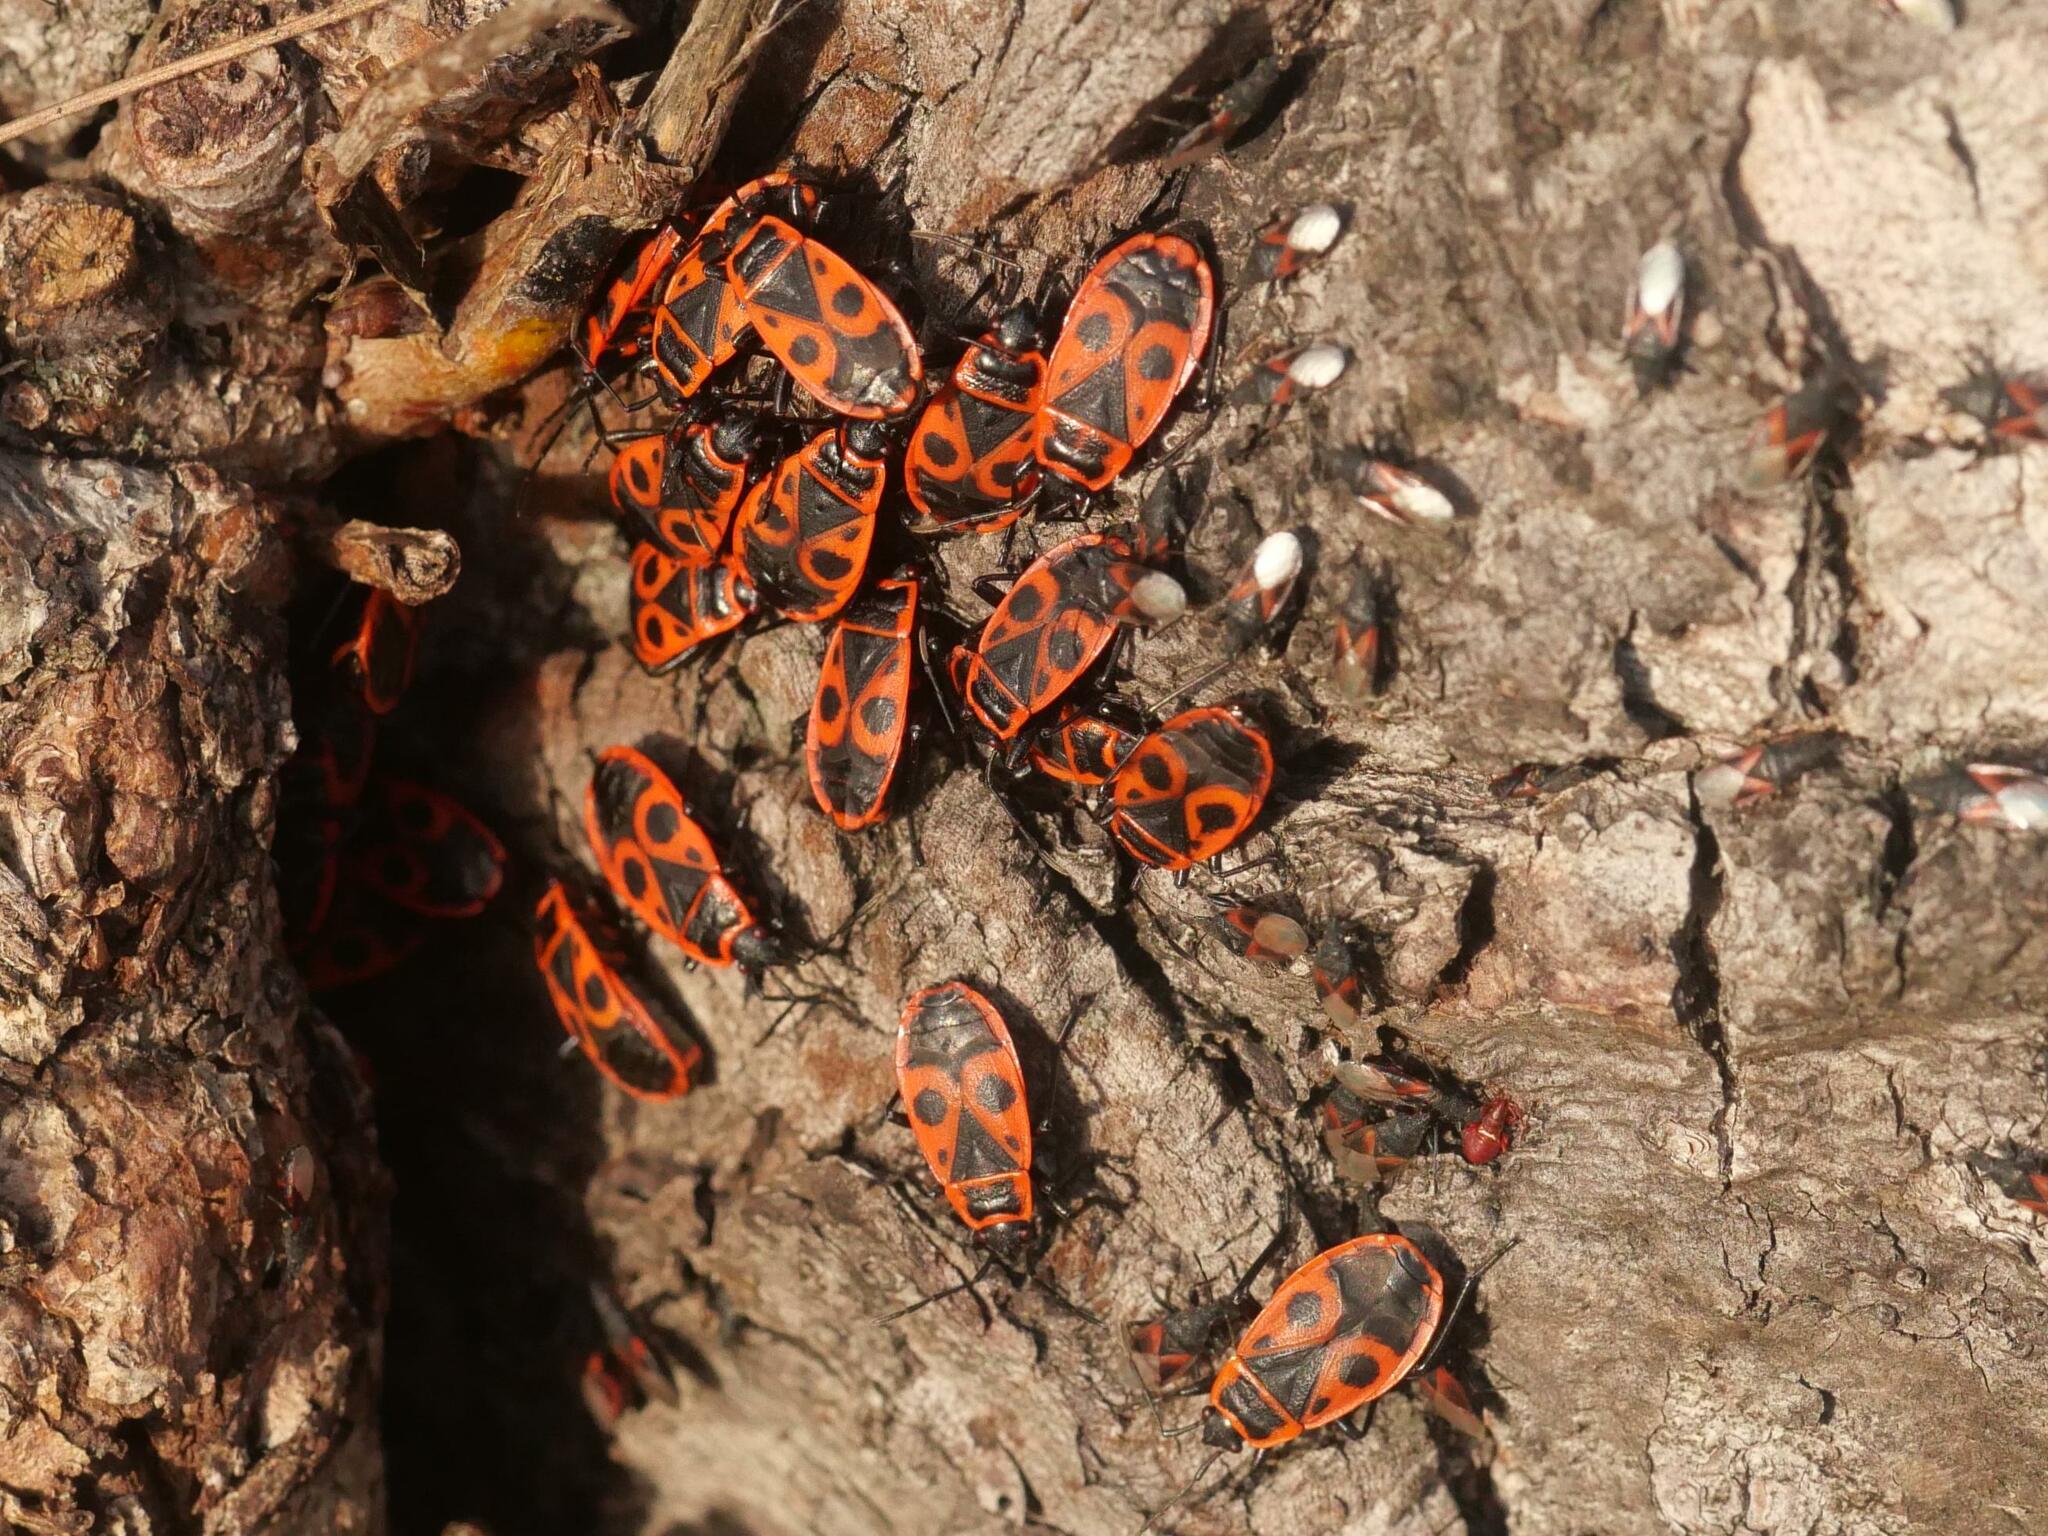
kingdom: Animalia
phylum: Arthropoda
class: Insecta
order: Hemiptera
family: Pyrrhocoridae
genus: Pyrrhocoris
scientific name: Pyrrhocoris apterus
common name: Firebug
